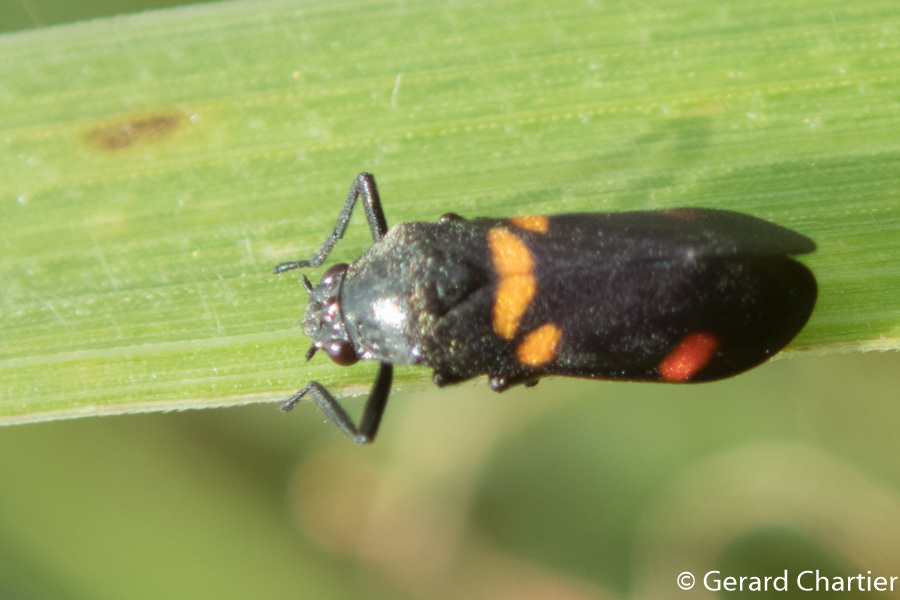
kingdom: Animalia
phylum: Arthropoda
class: Insecta
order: Hemiptera
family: Cercopidae
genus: Callitettix
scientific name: Callitettix carinifrons
